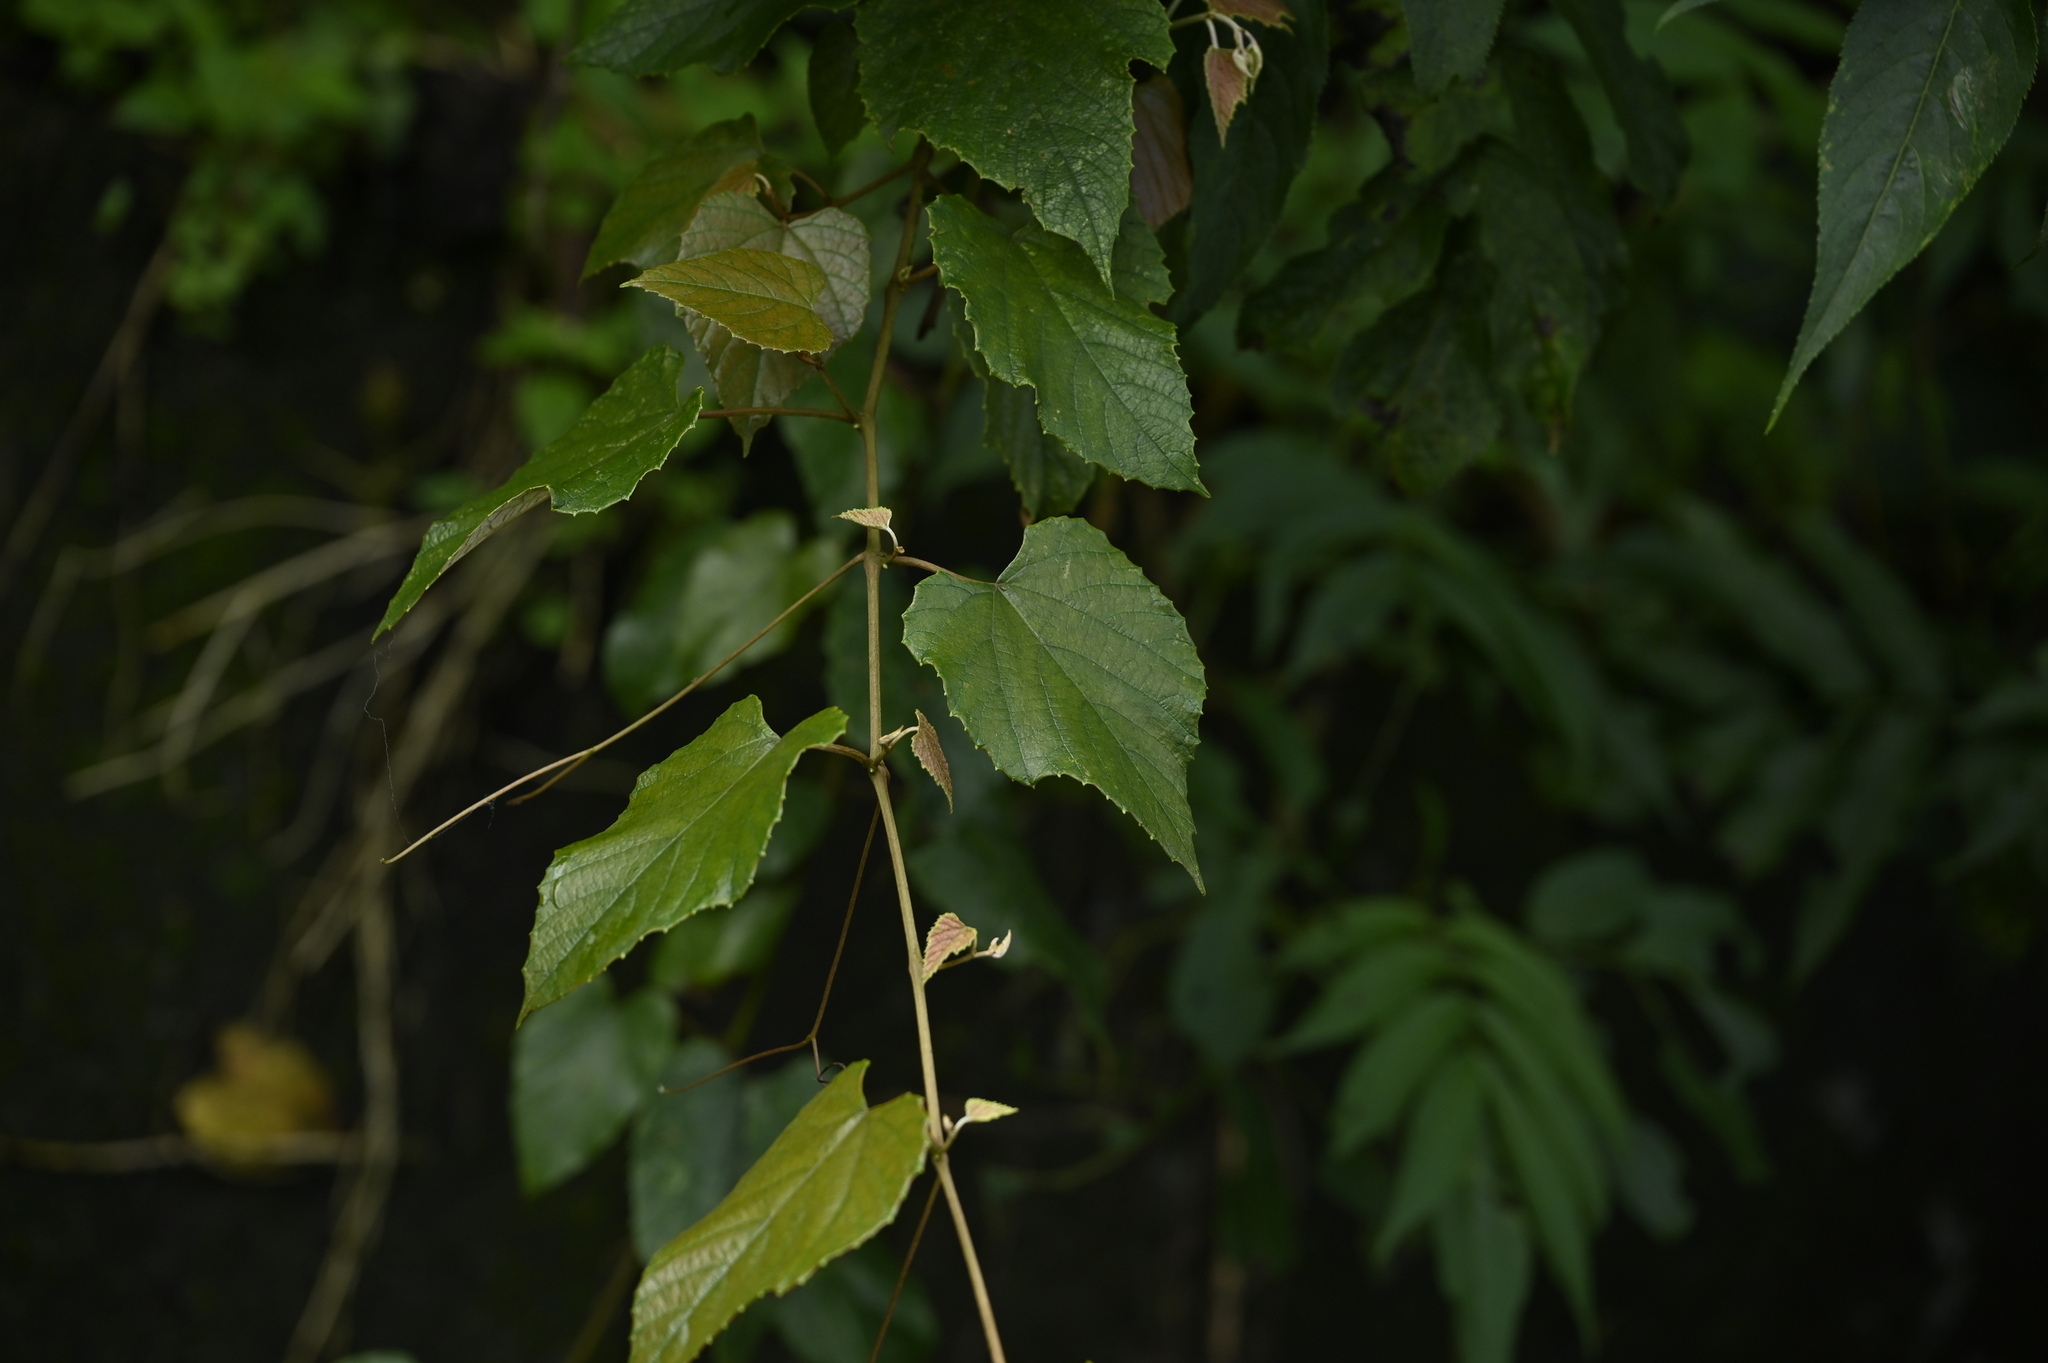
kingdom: Plantae
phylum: Tracheophyta
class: Magnoliopsida
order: Vitales
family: Vitaceae
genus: Vitis
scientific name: Vitis heyneana
